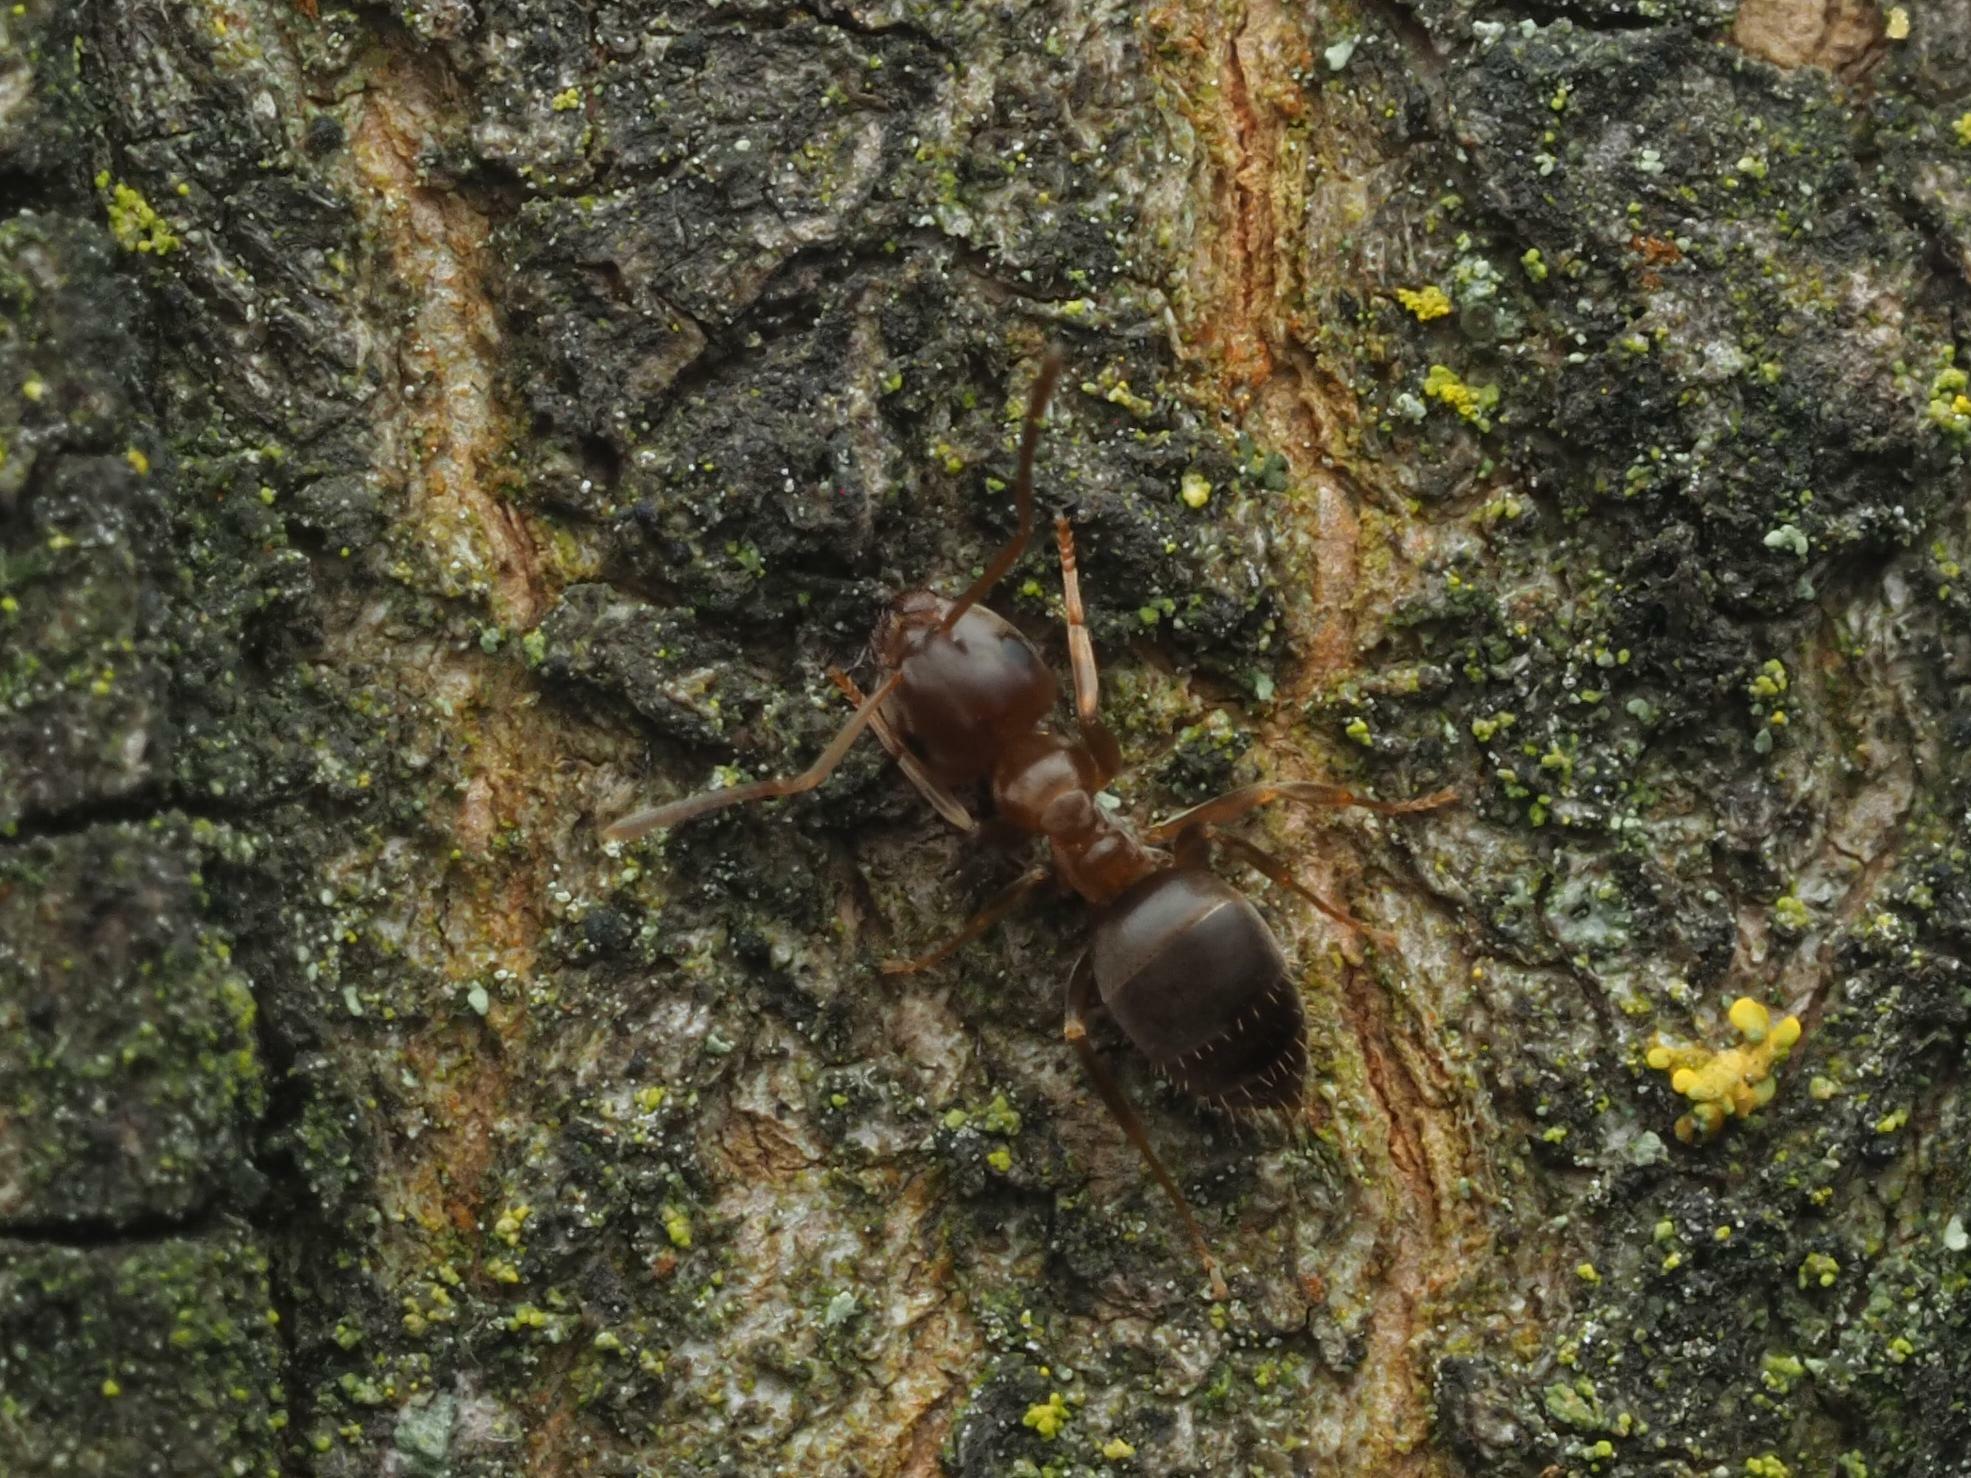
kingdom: Animalia
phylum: Arthropoda
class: Insecta
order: Hymenoptera
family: Formicidae
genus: Lasius
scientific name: Lasius brunneus
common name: Brown ant
